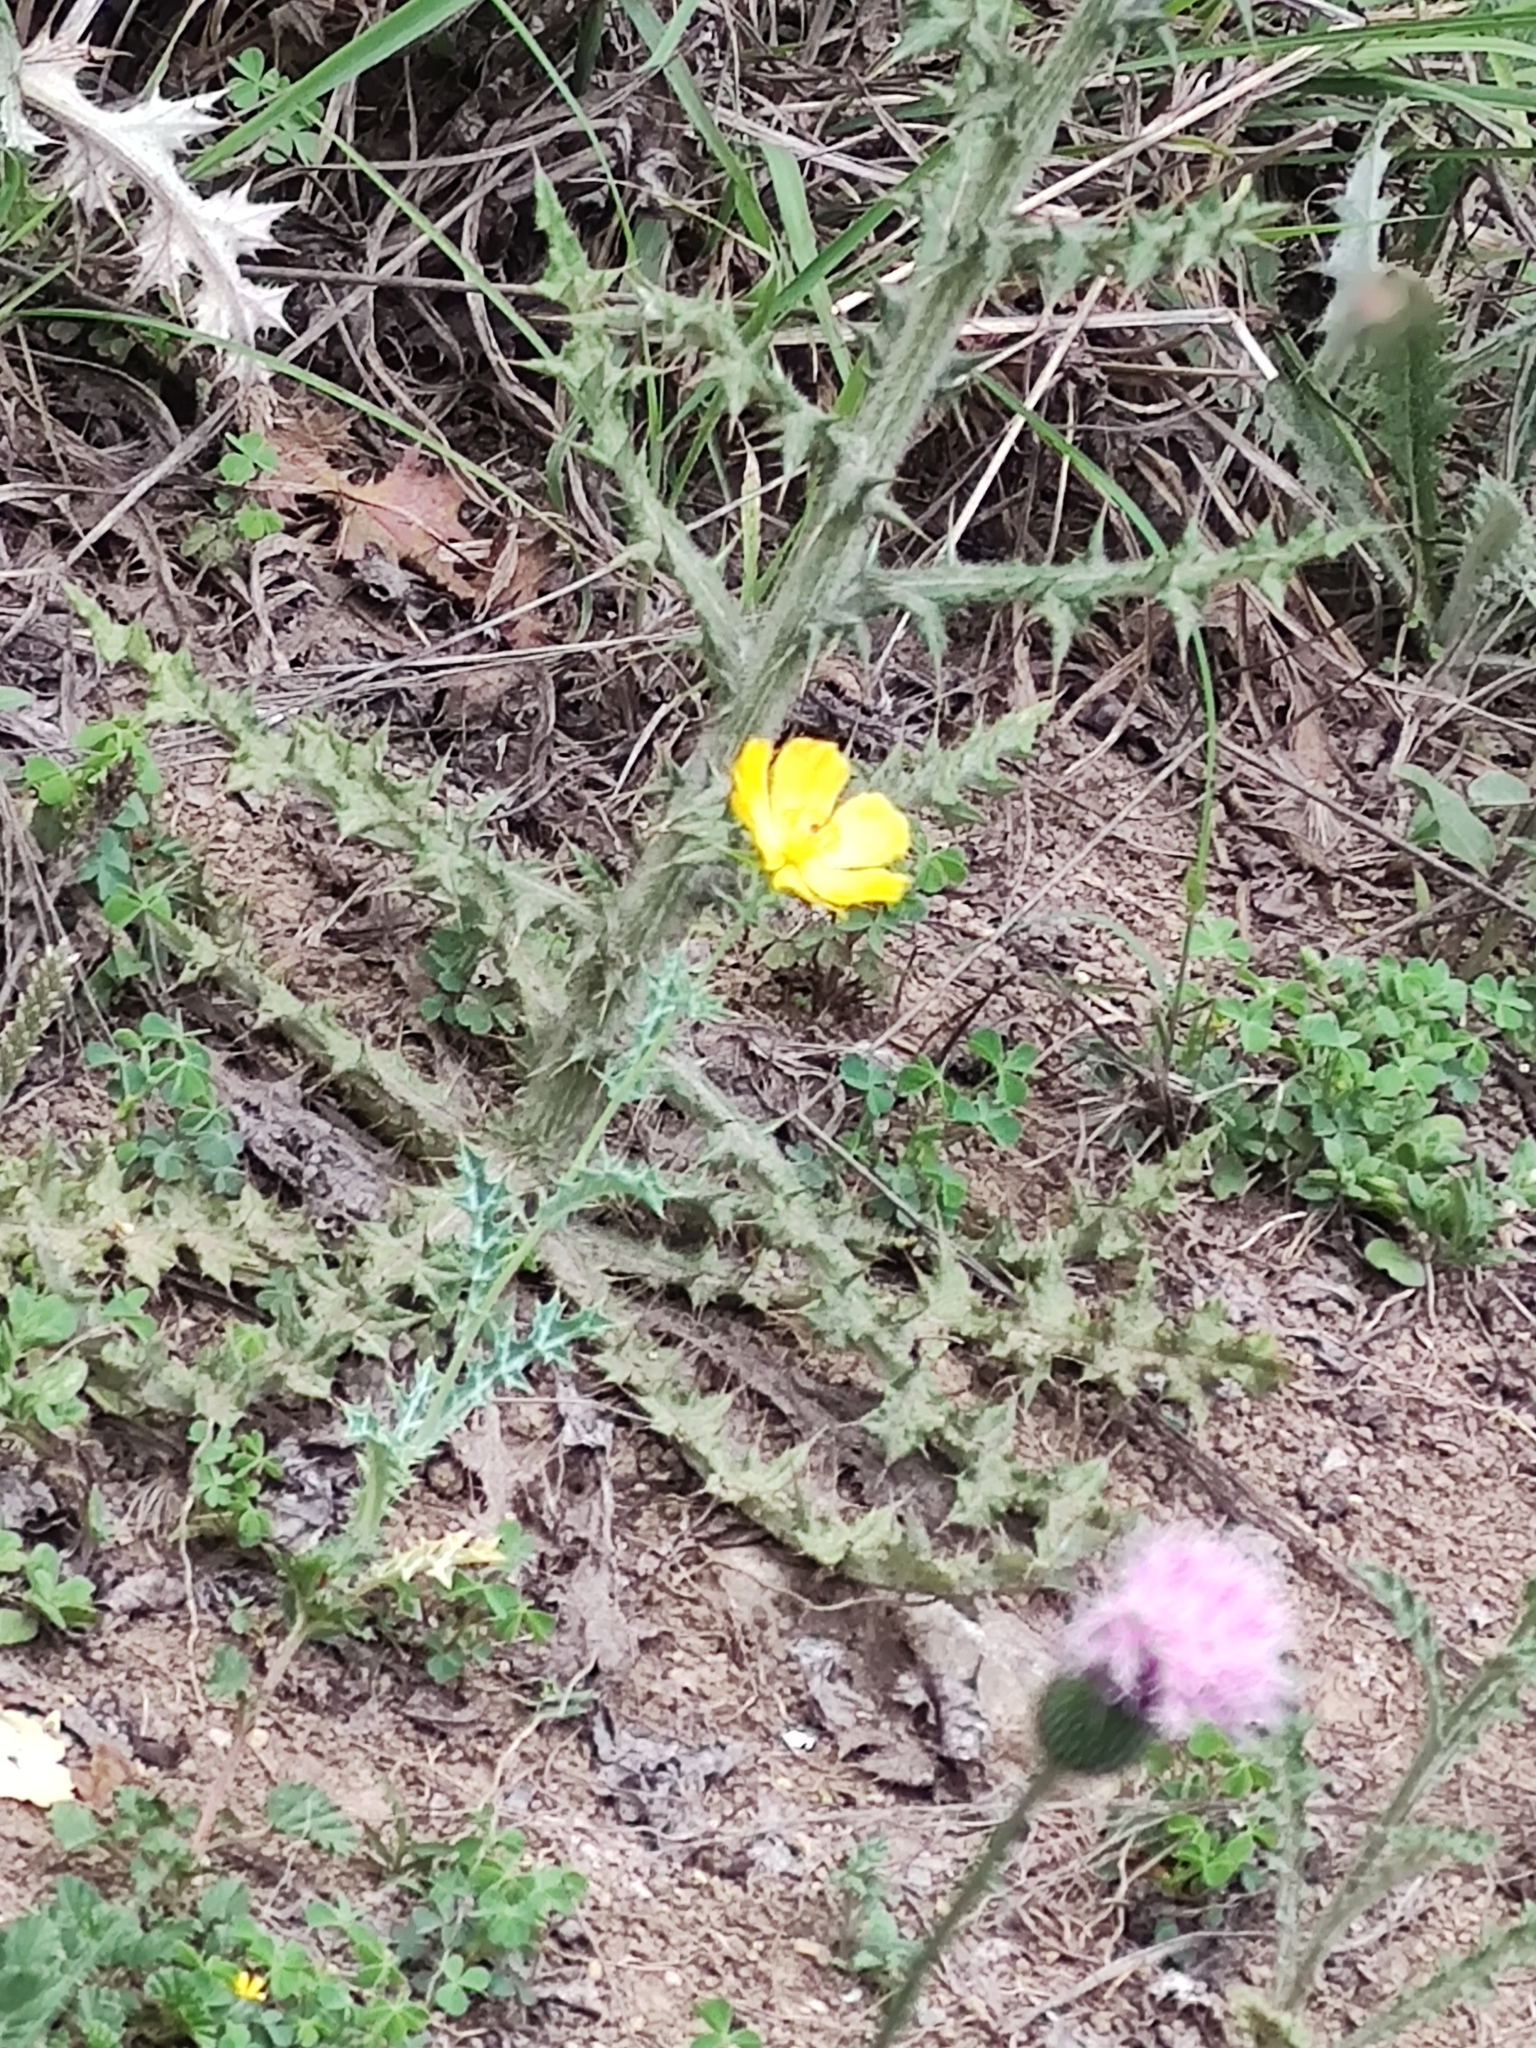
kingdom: Plantae
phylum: Tracheophyta
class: Magnoliopsida
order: Ranunculales
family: Papaveraceae
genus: Argemone
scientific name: Argemone mexicana
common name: Mexican poppy
